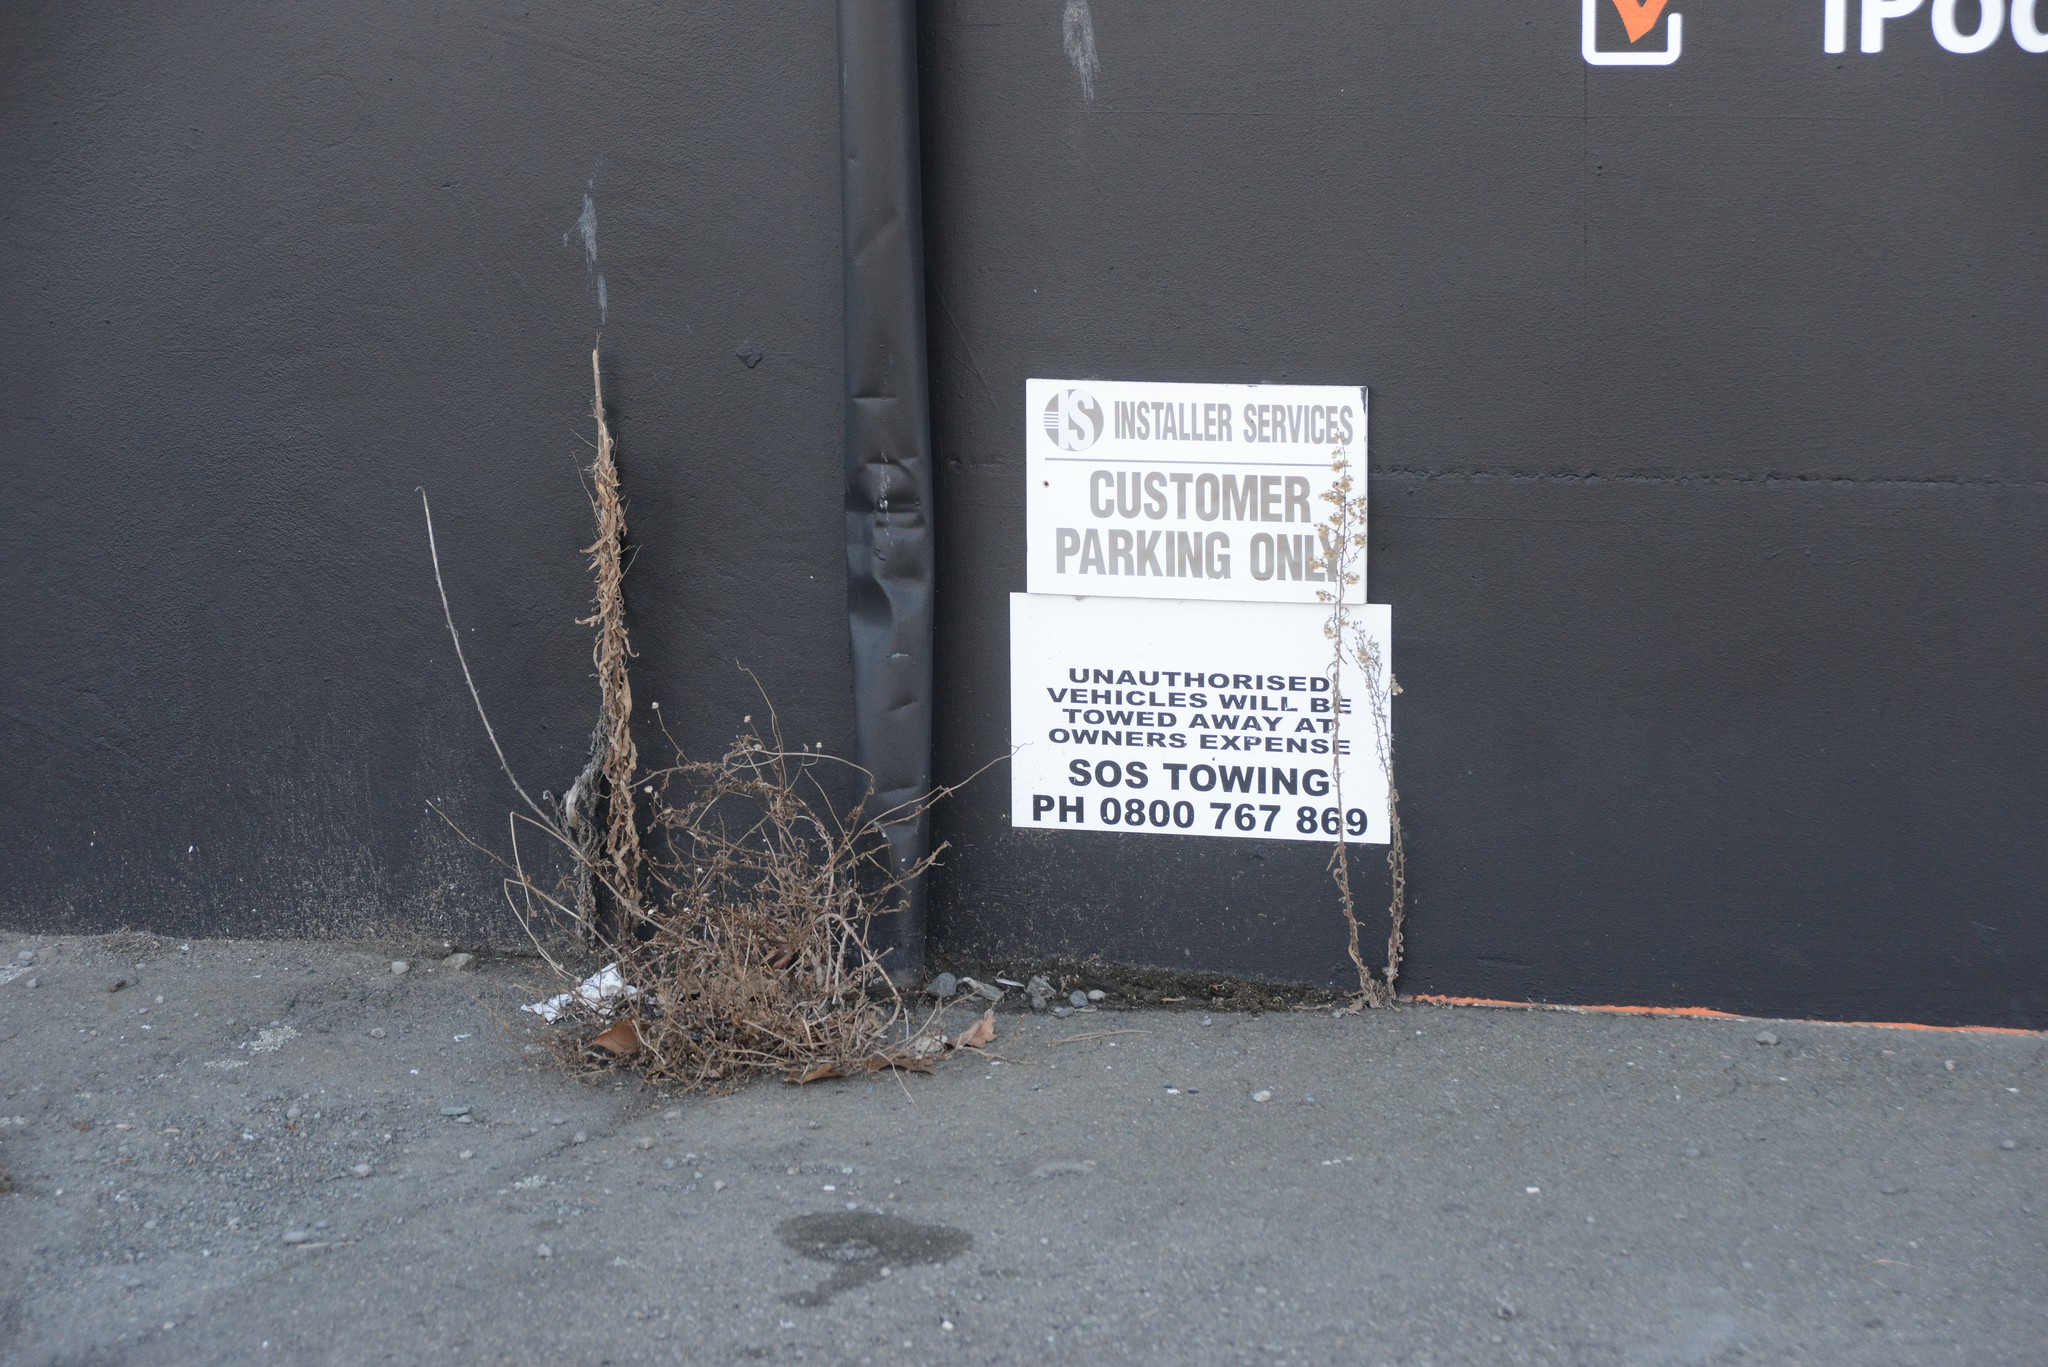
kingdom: Plantae
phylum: Tracheophyta
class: Magnoliopsida
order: Asterales
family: Asteraceae
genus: Senecio
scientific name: Senecio skirrhodon
